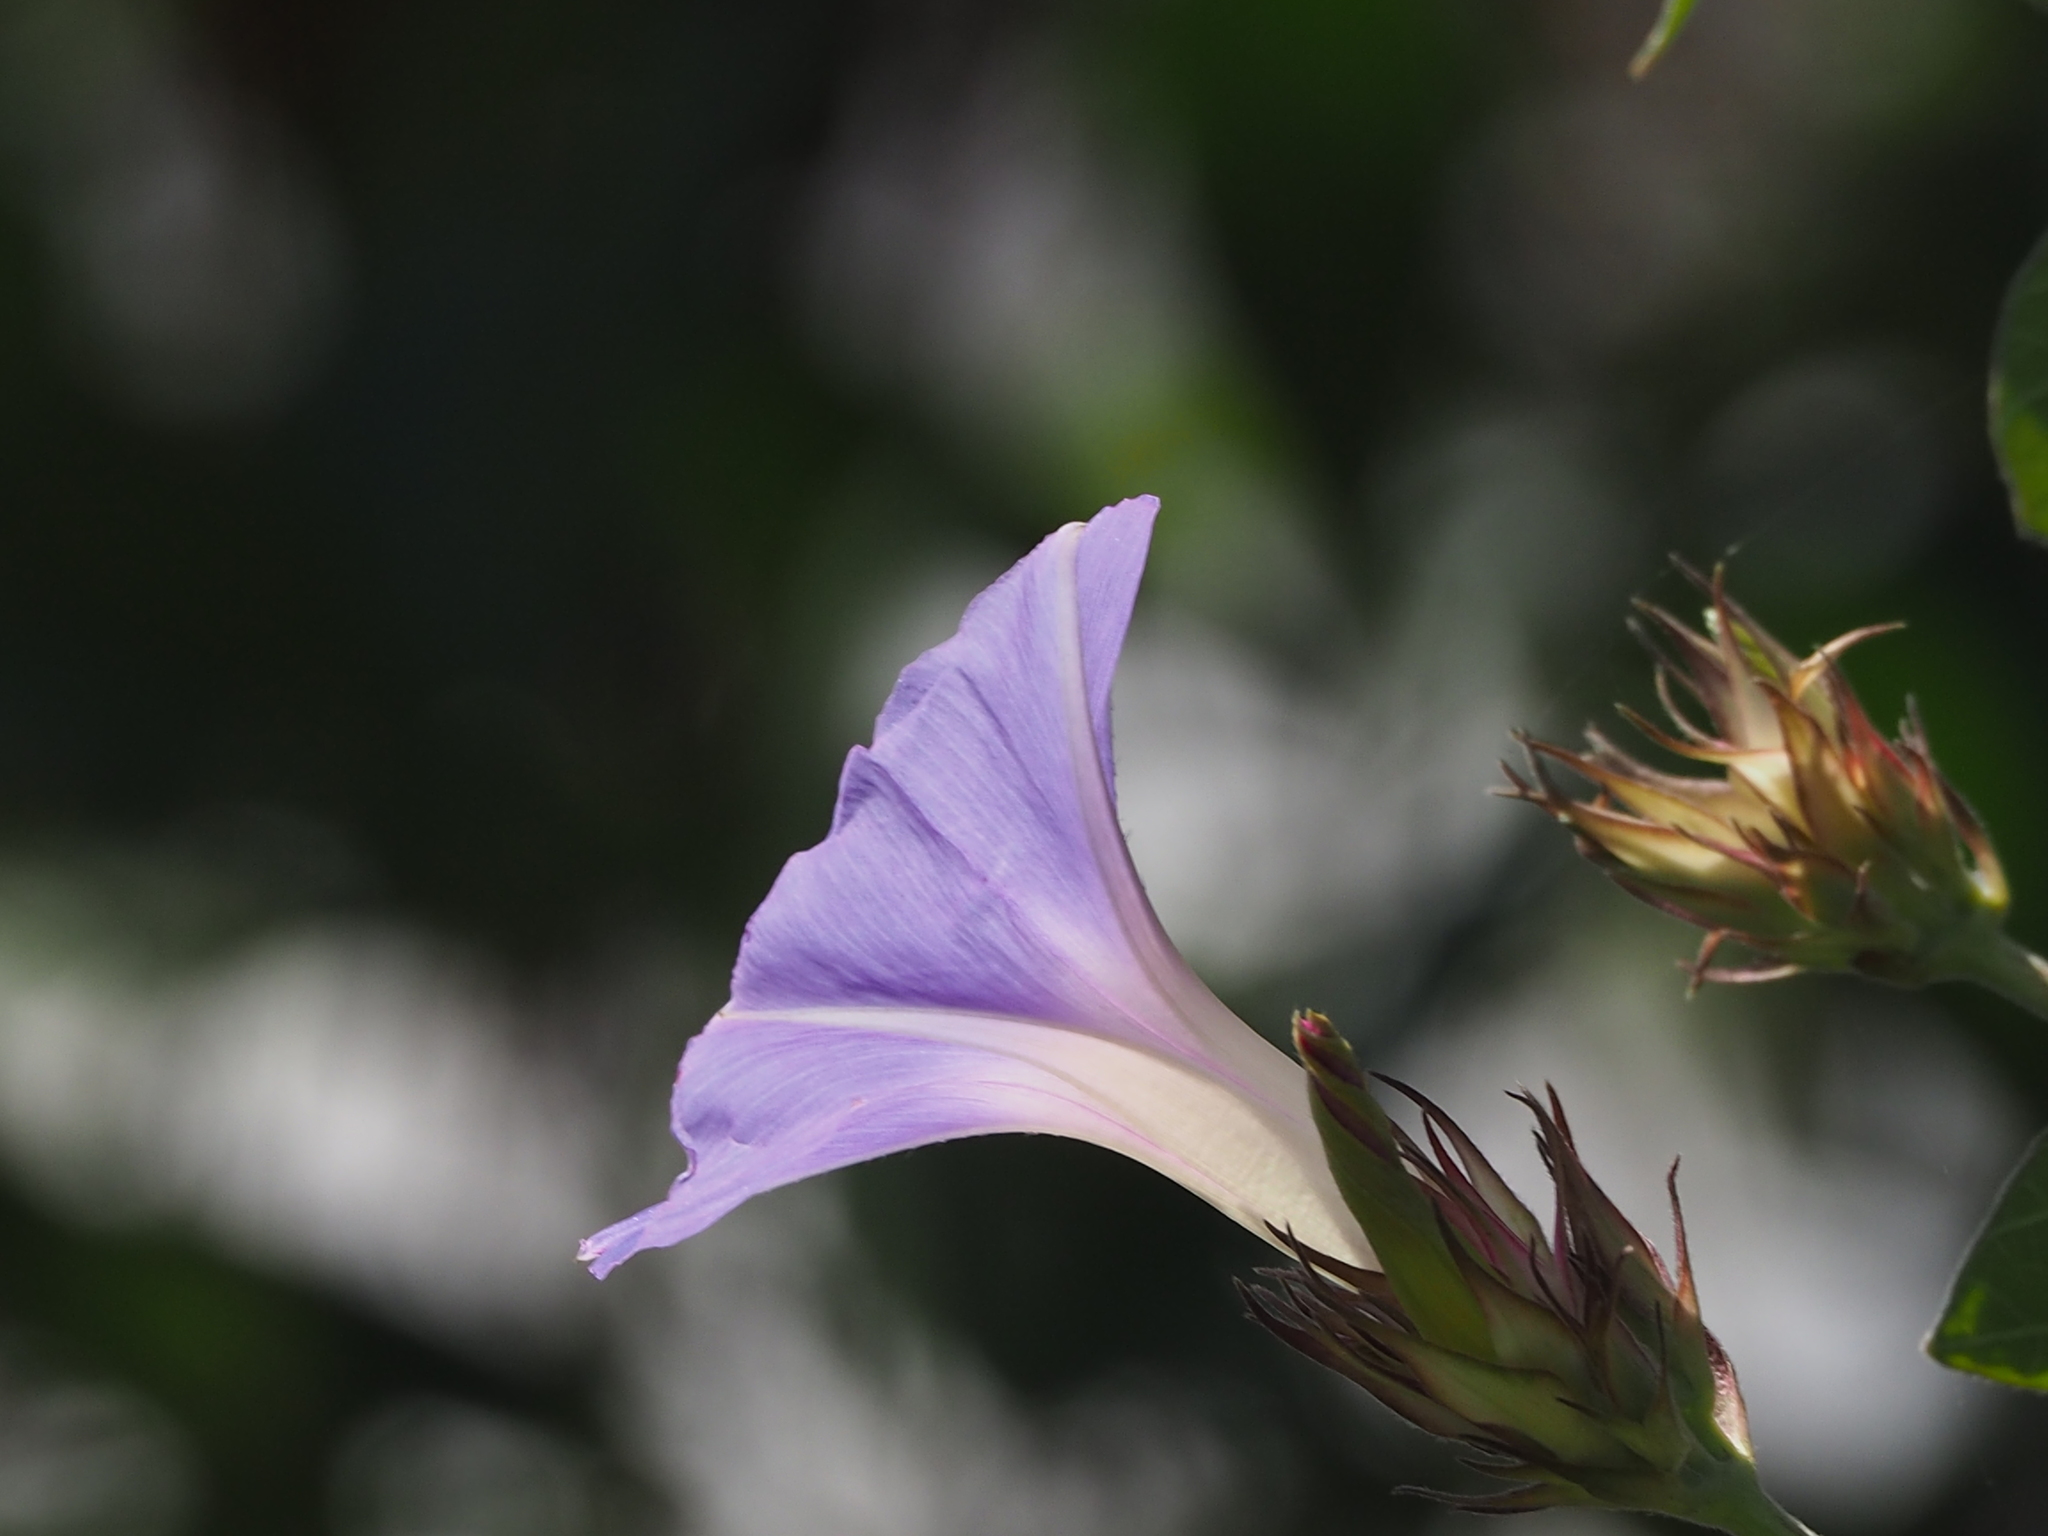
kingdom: Plantae
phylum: Tracheophyta
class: Magnoliopsida
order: Solanales
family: Convolvulaceae
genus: Ipomoea
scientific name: Ipomoea indica
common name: Blue dawnflower
